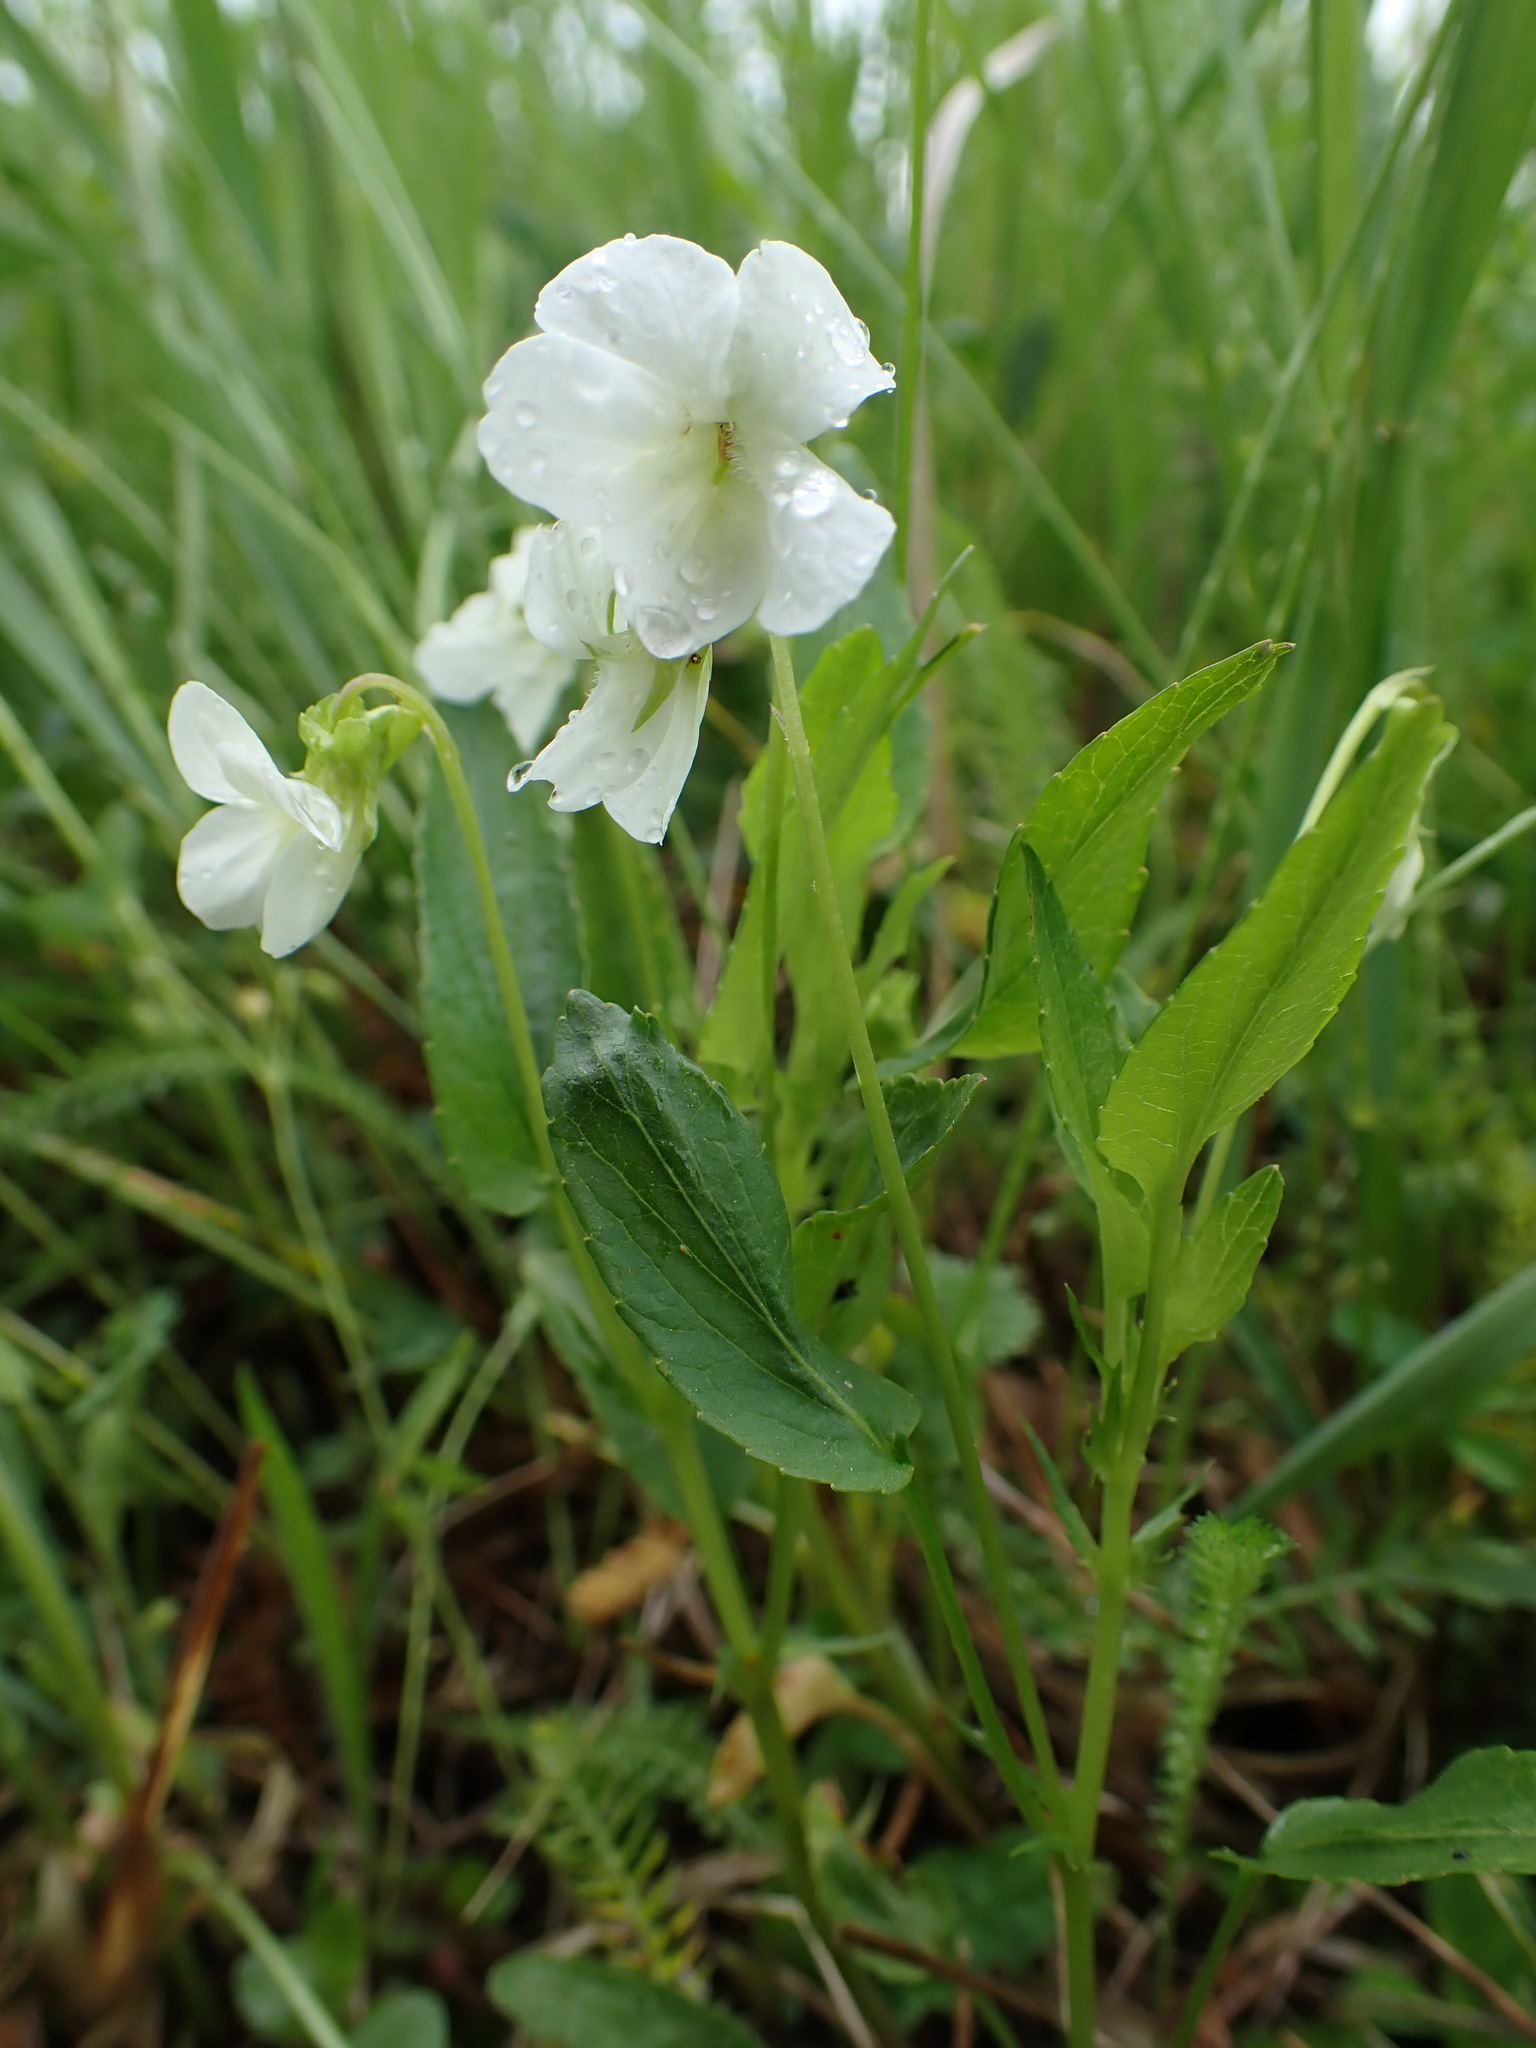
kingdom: Plantae
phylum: Tracheophyta
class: Magnoliopsida
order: Malpighiales
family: Violaceae
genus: Viola
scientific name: Viola stagnina
